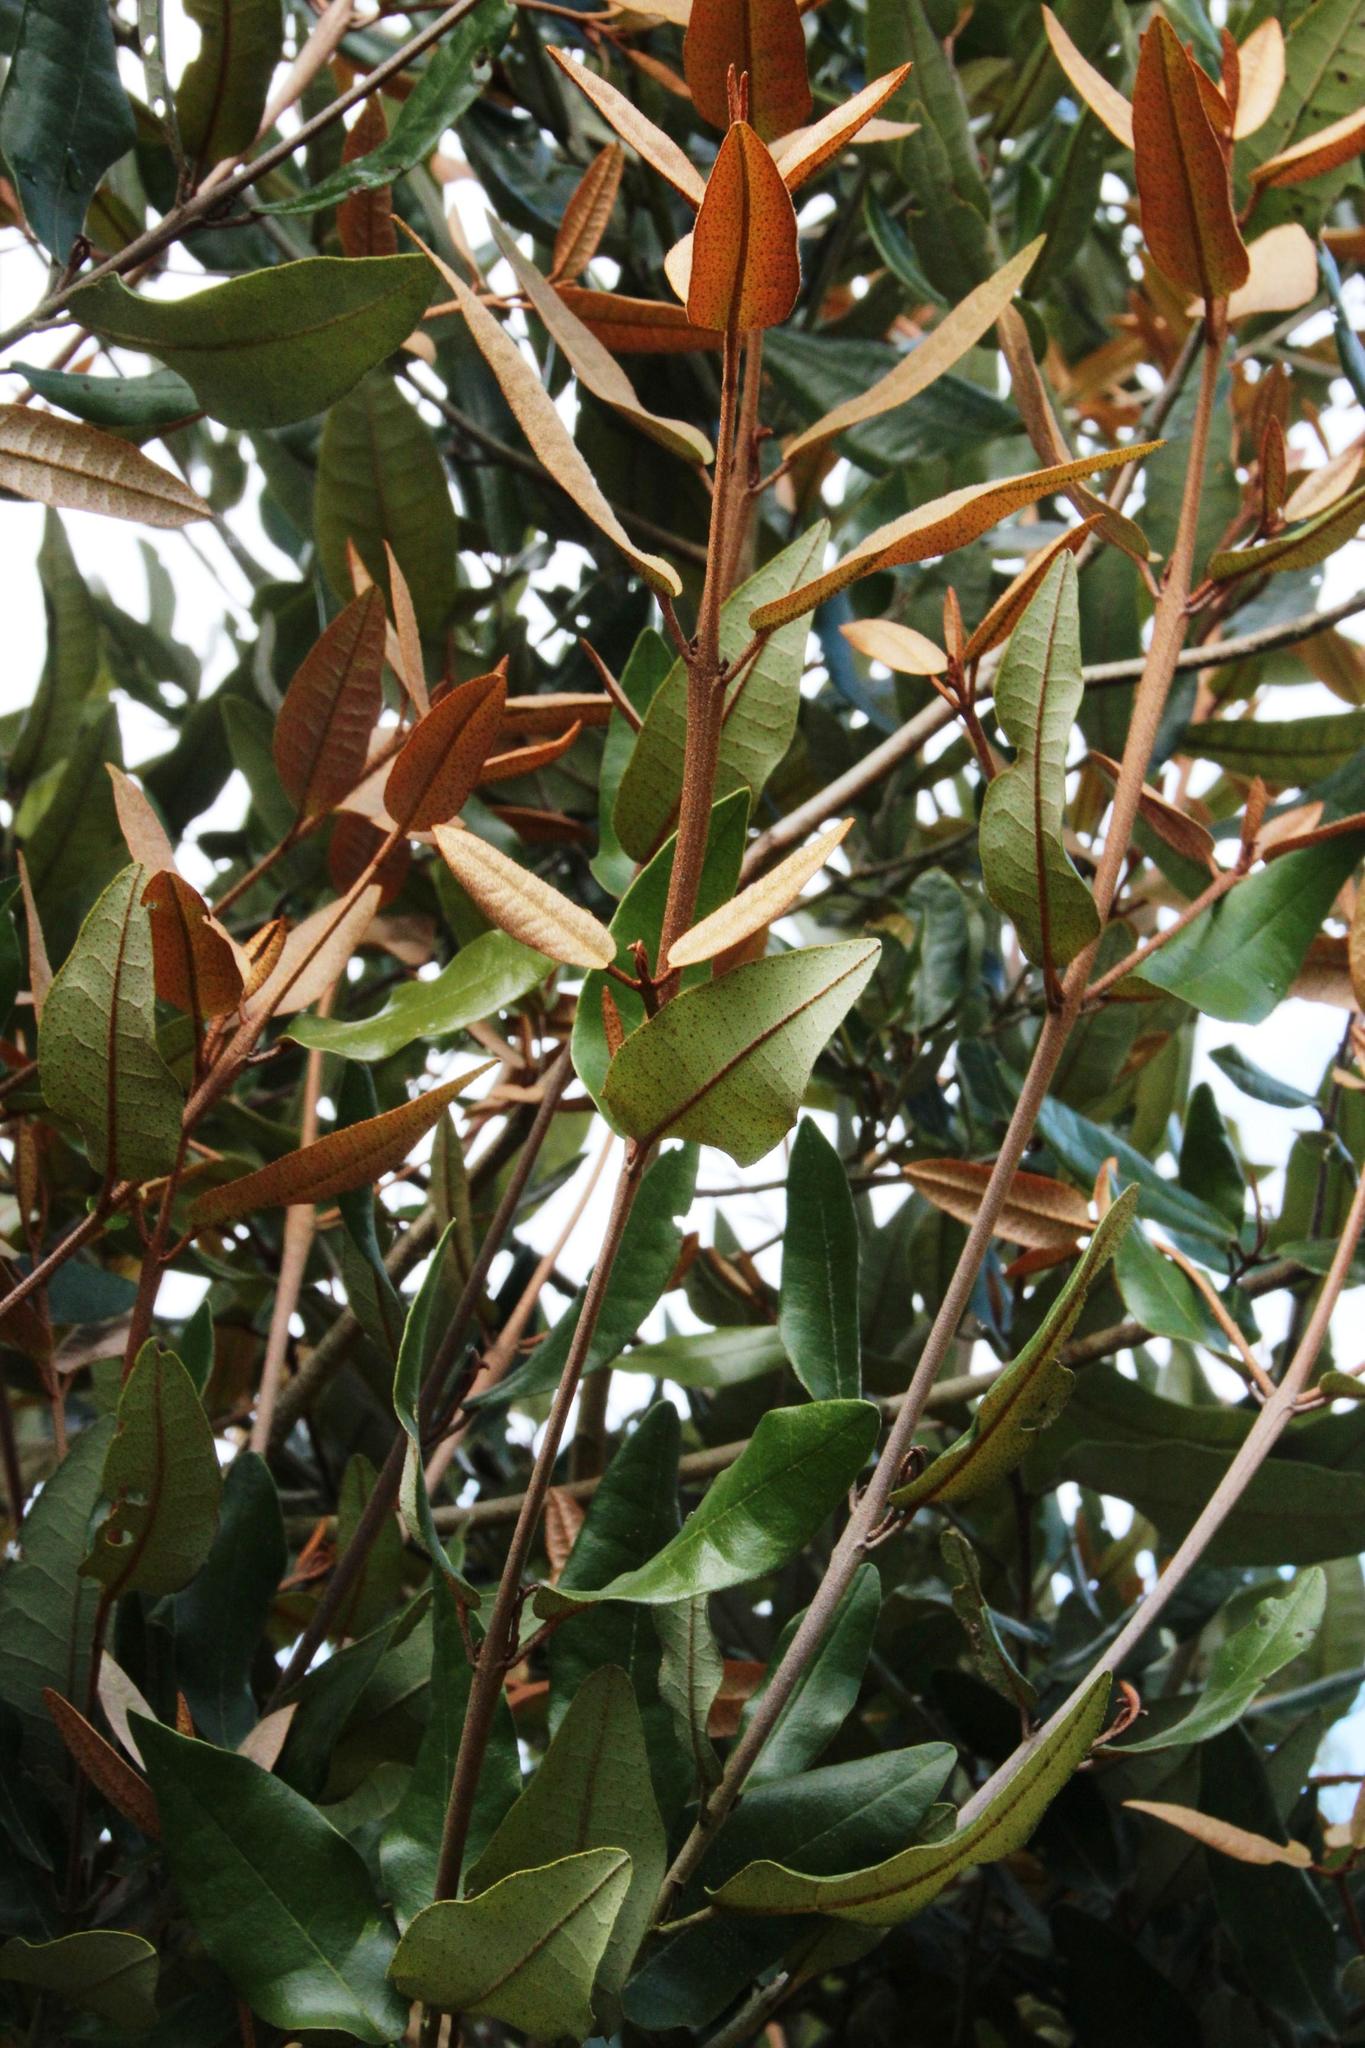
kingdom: Plantae
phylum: Tracheophyta
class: Magnoliopsida
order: Berberidopsidales
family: Aextoxicaceae
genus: Aextoxicon
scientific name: Aextoxicon punctatum
